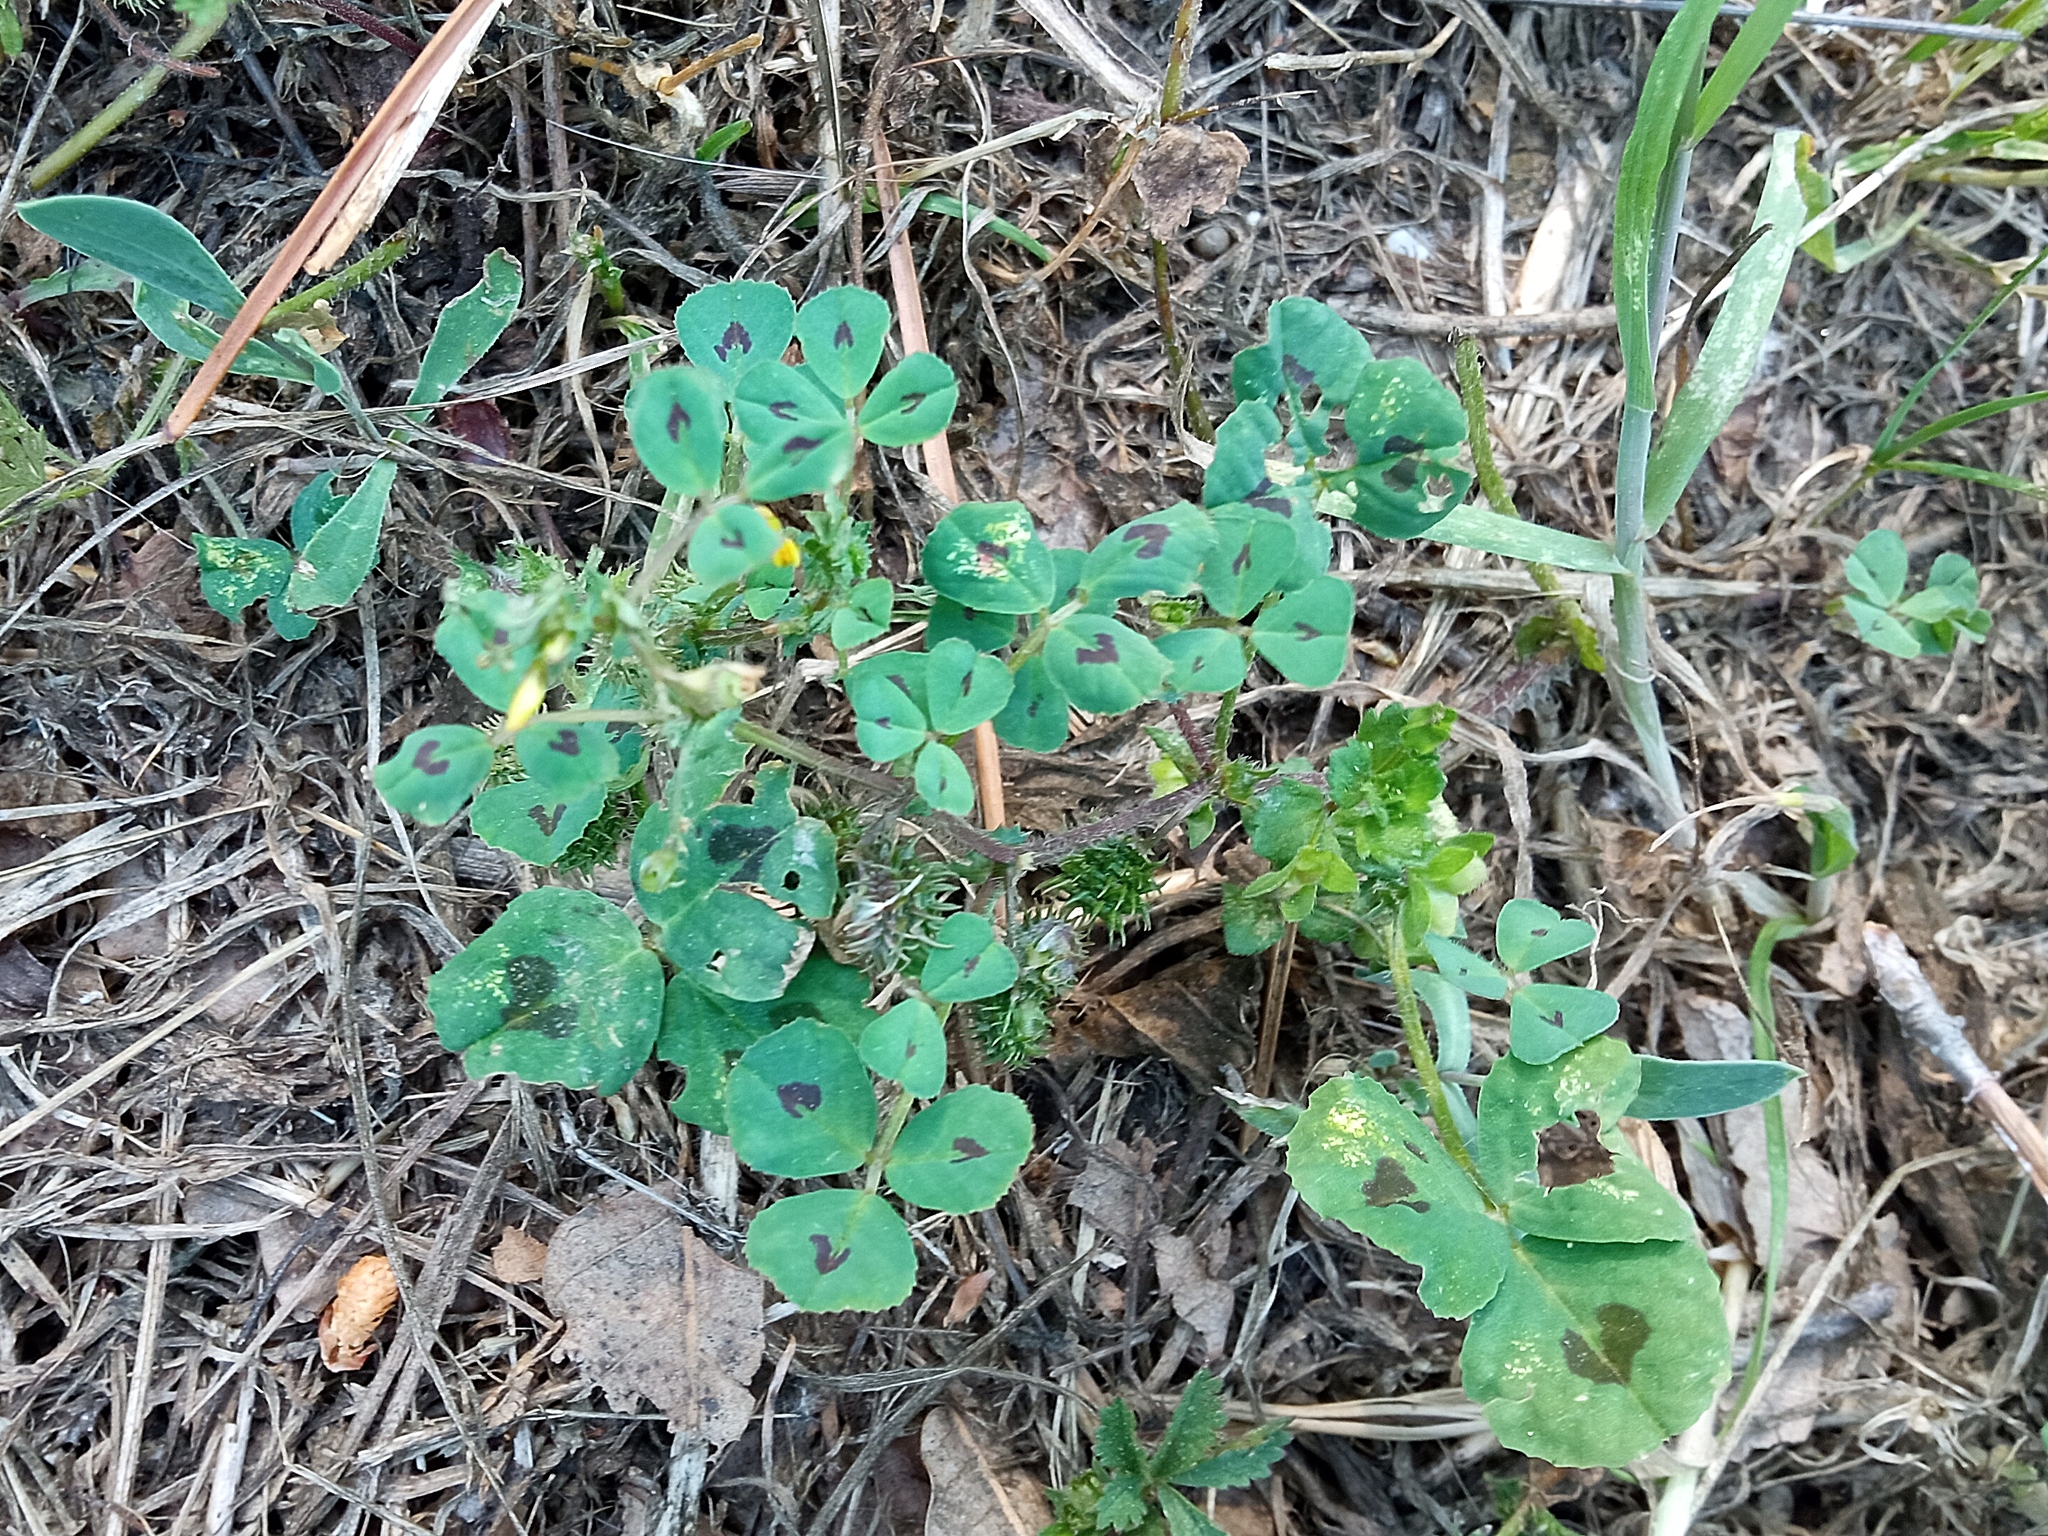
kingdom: Plantae
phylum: Tracheophyta
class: Magnoliopsida
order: Fabales
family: Fabaceae
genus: Medicago
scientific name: Medicago arabica
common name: Spotted medick
